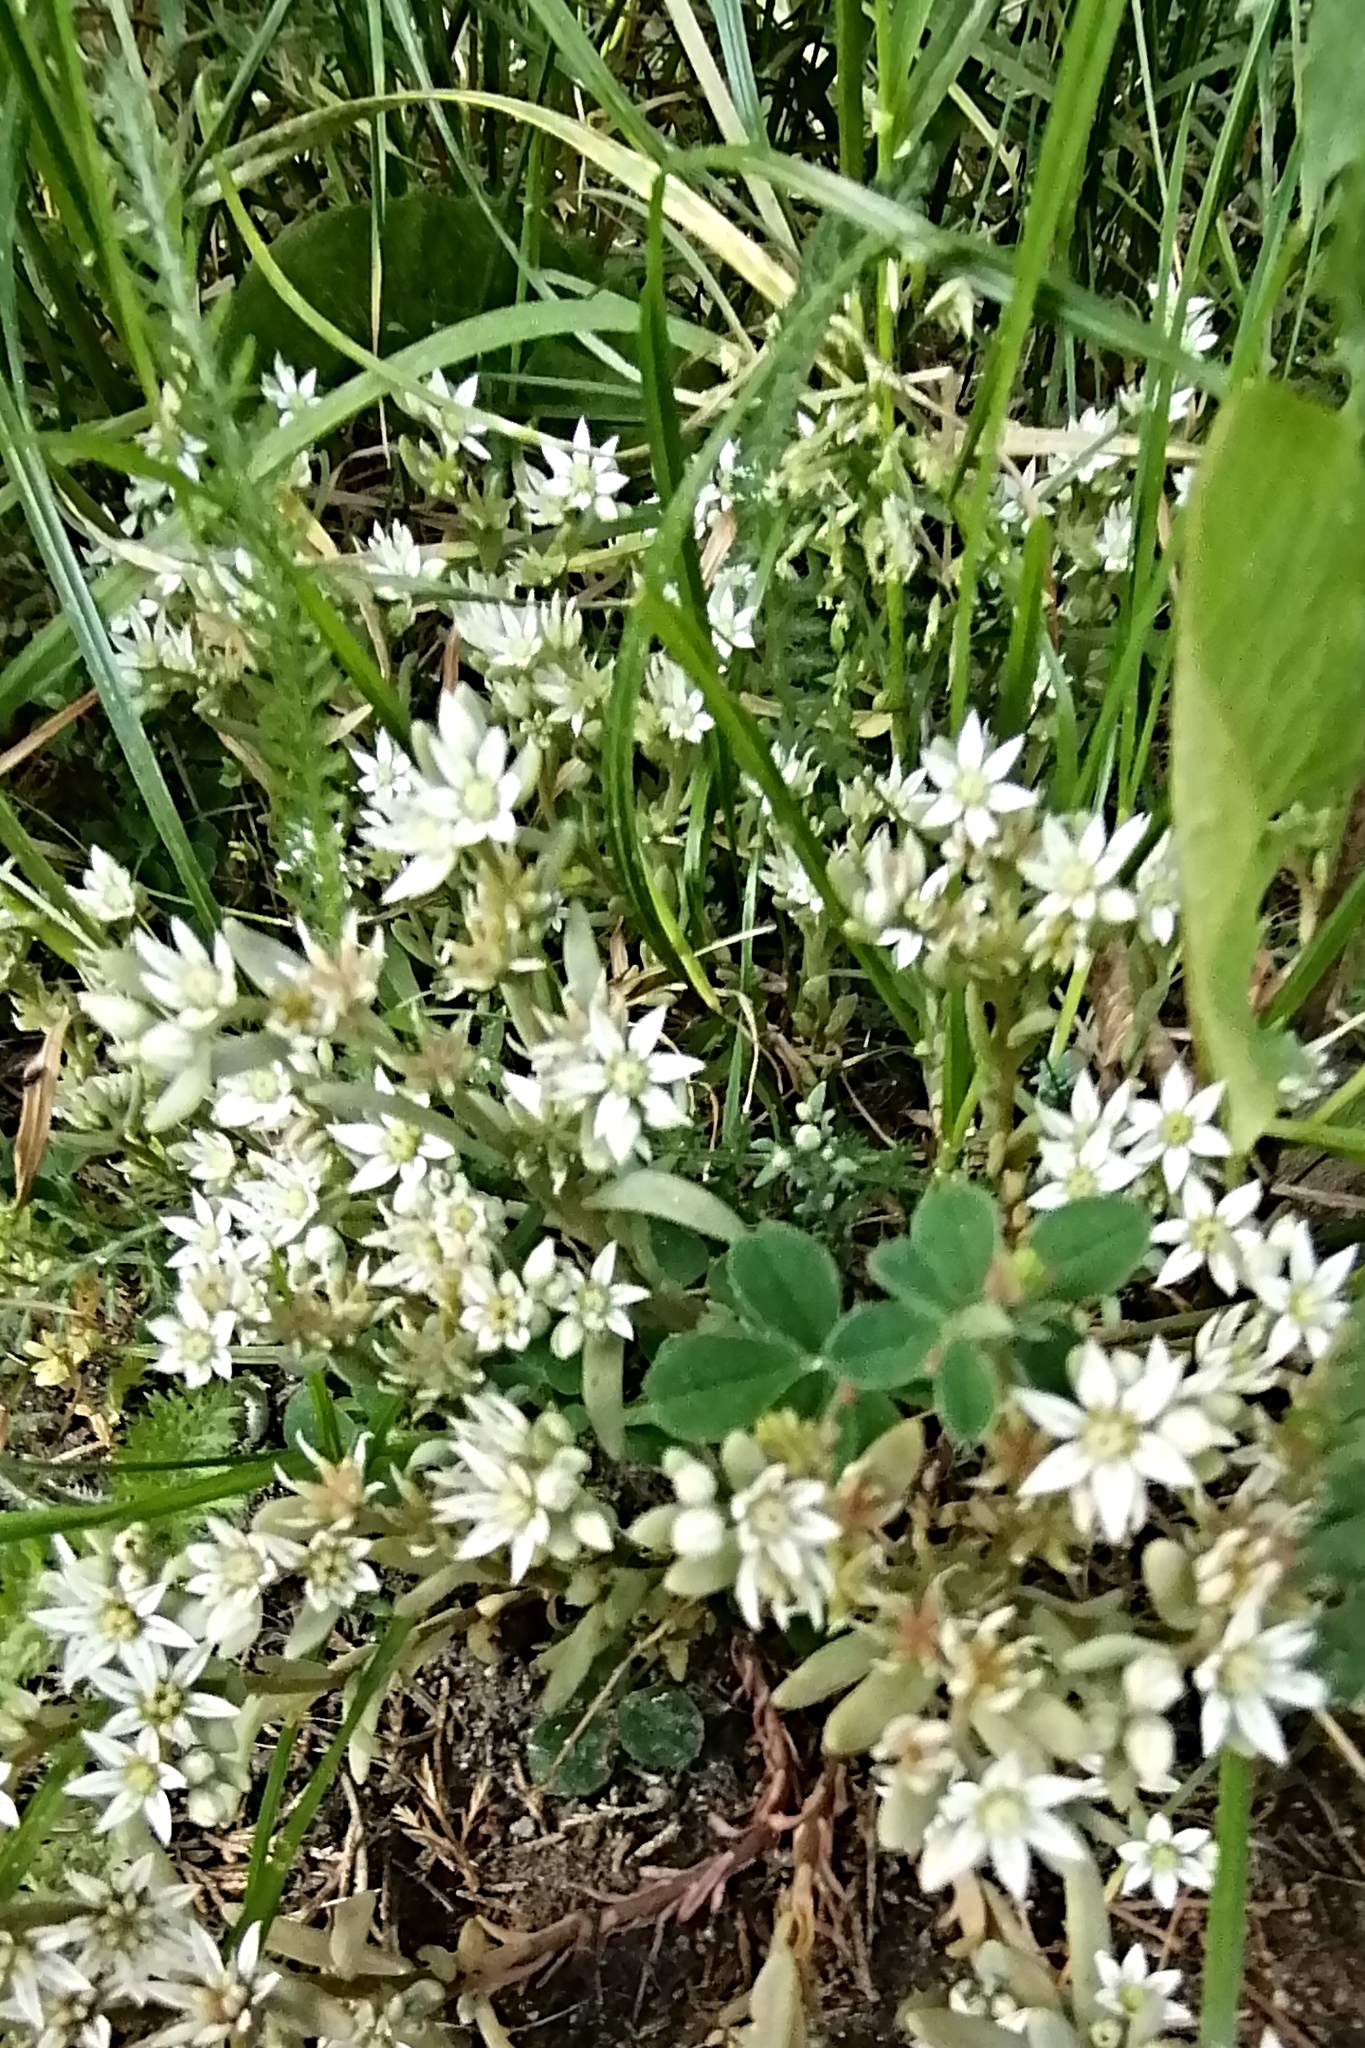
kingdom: Plantae
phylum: Tracheophyta
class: Magnoliopsida
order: Saxifragales
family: Crassulaceae
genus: Sedum
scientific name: Sedum hispanicum
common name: Spanish stonecrop
